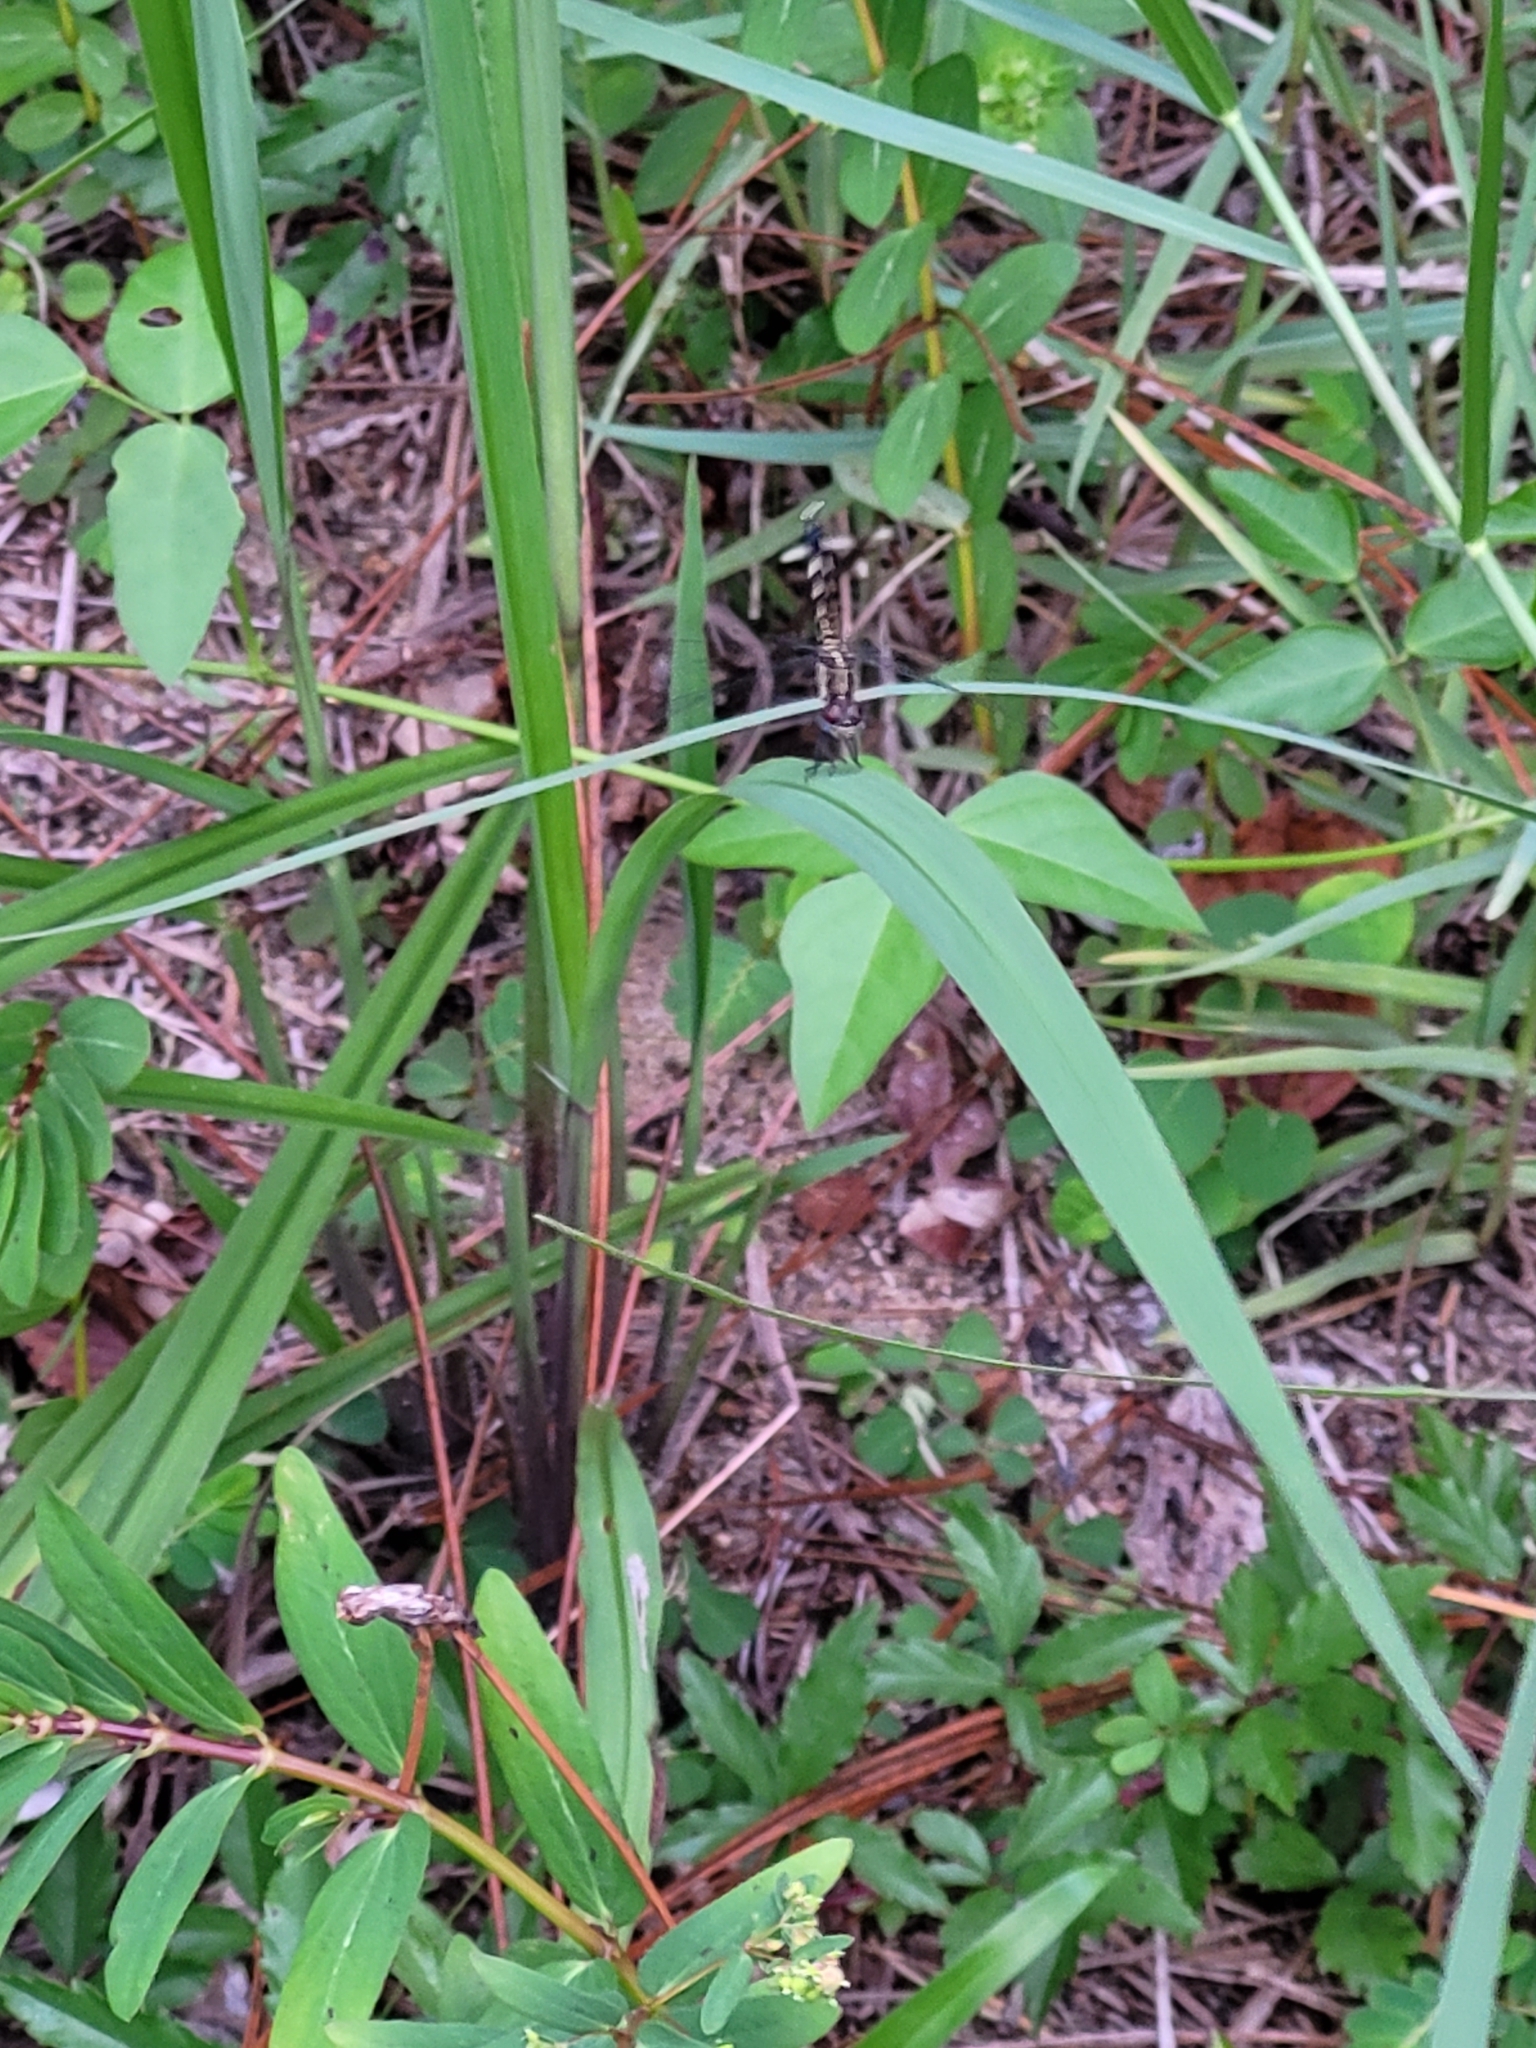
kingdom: Animalia
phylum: Arthropoda
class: Insecta
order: Odonata
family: Libellulidae
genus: Erythrodiplax
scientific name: Erythrodiplax minuscula
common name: Little blue dragonlet
